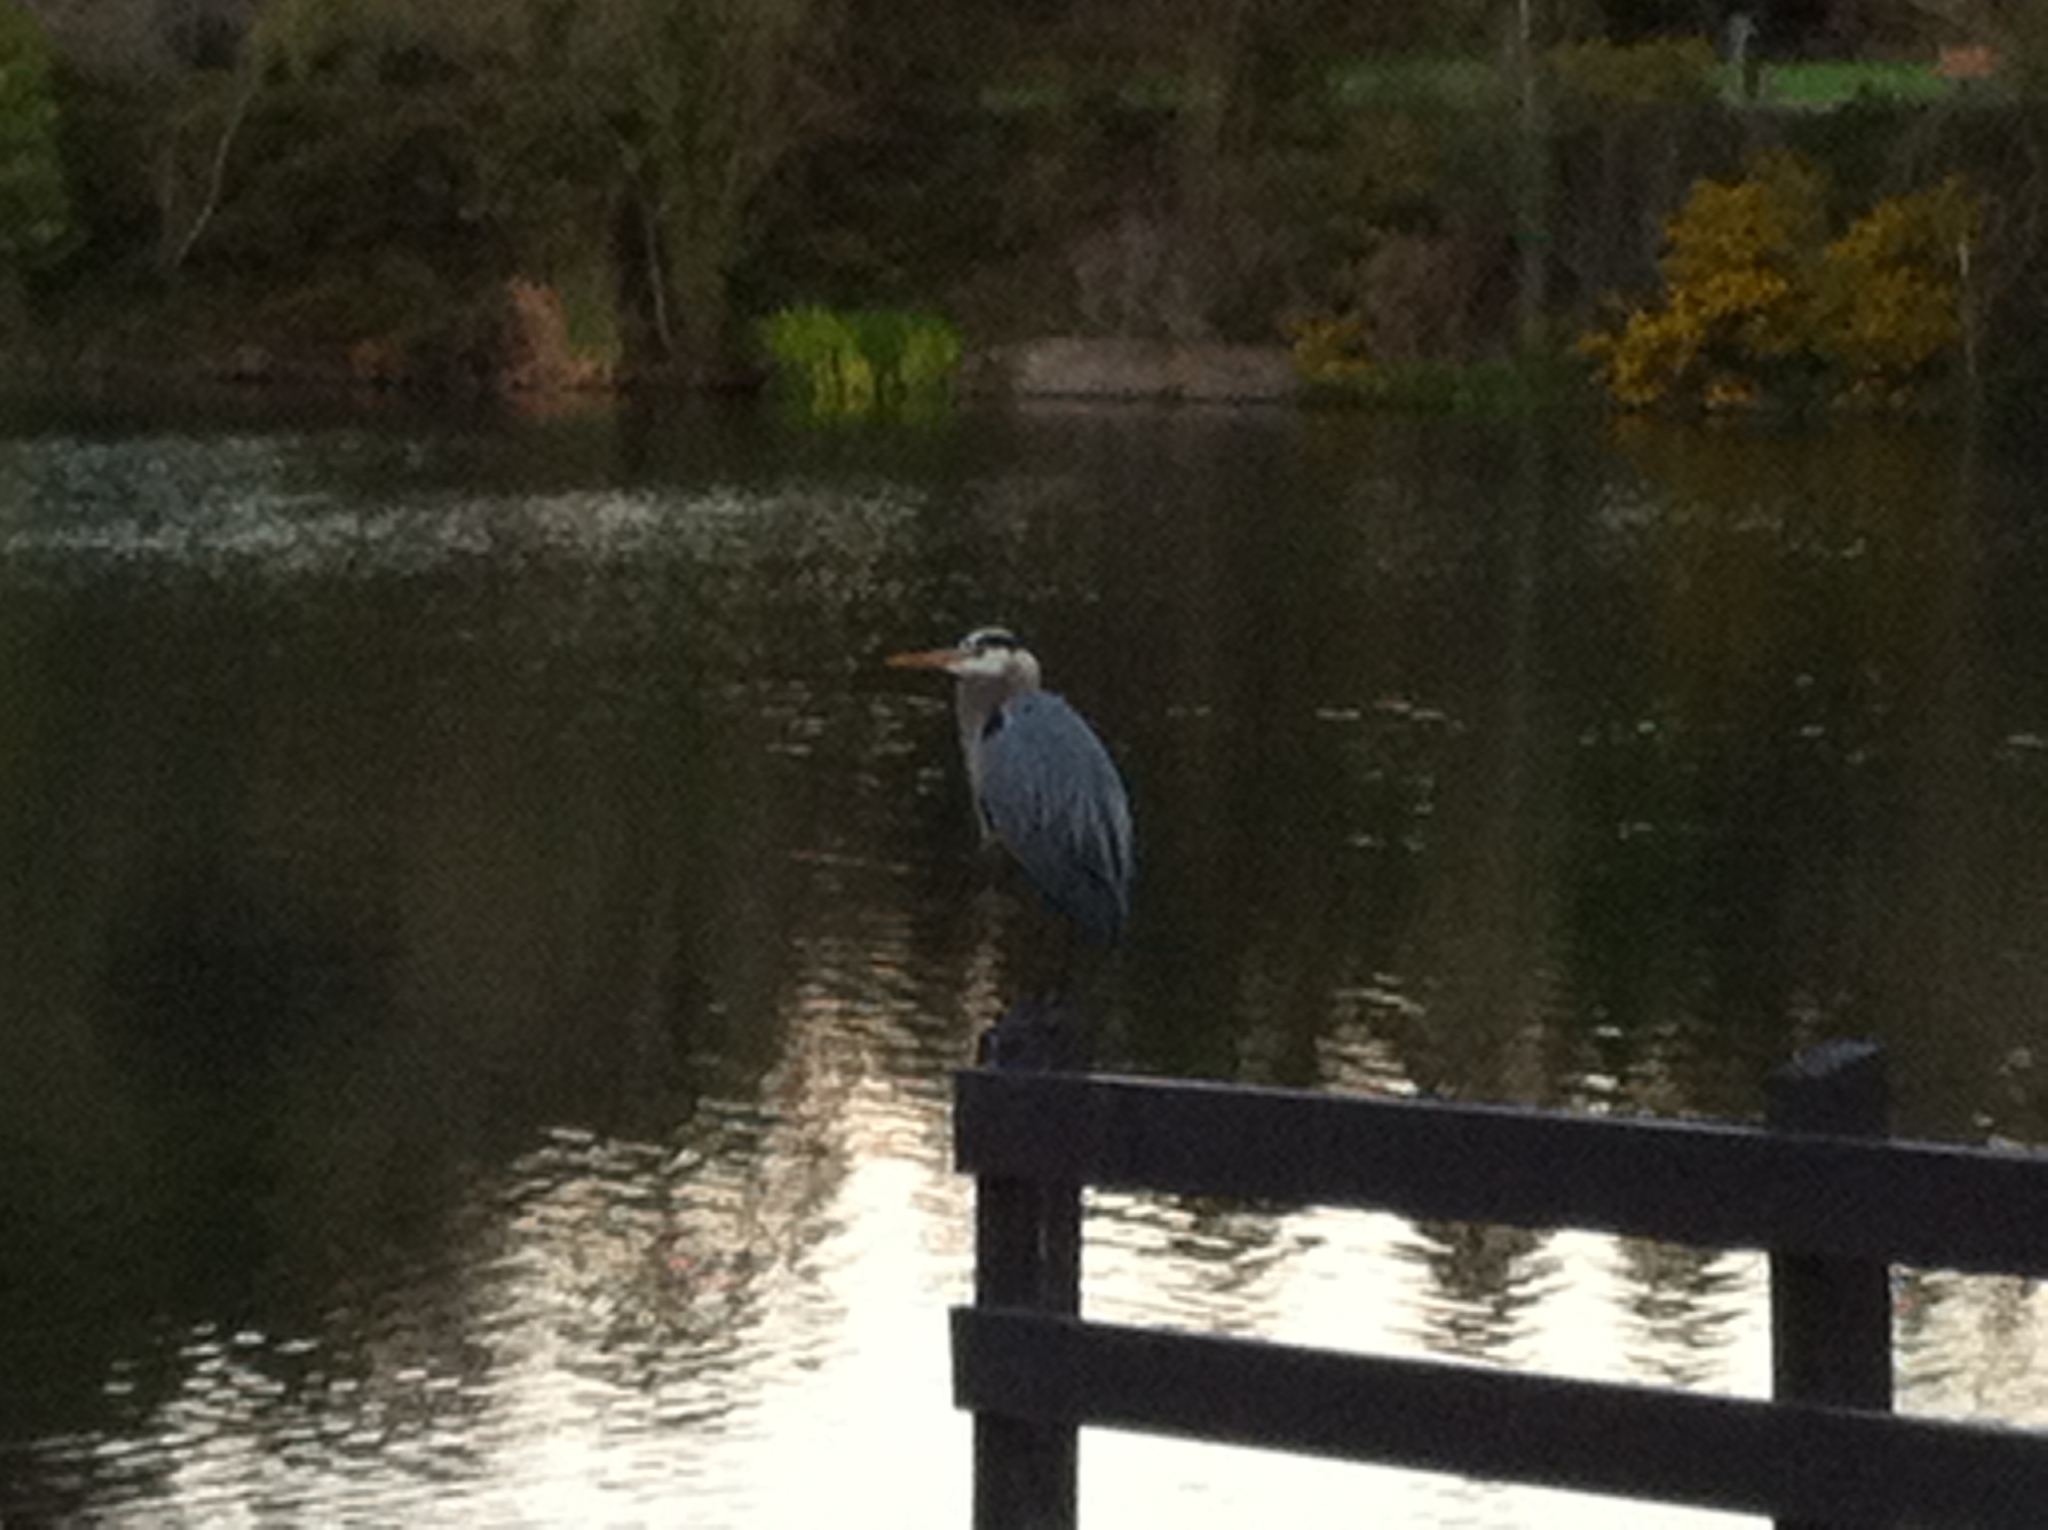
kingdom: Animalia
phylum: Chordata
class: Aves
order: Pelecaniformes
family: Ardeidae
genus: Ardea
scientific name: Ardea herodias
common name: Great blue heron
